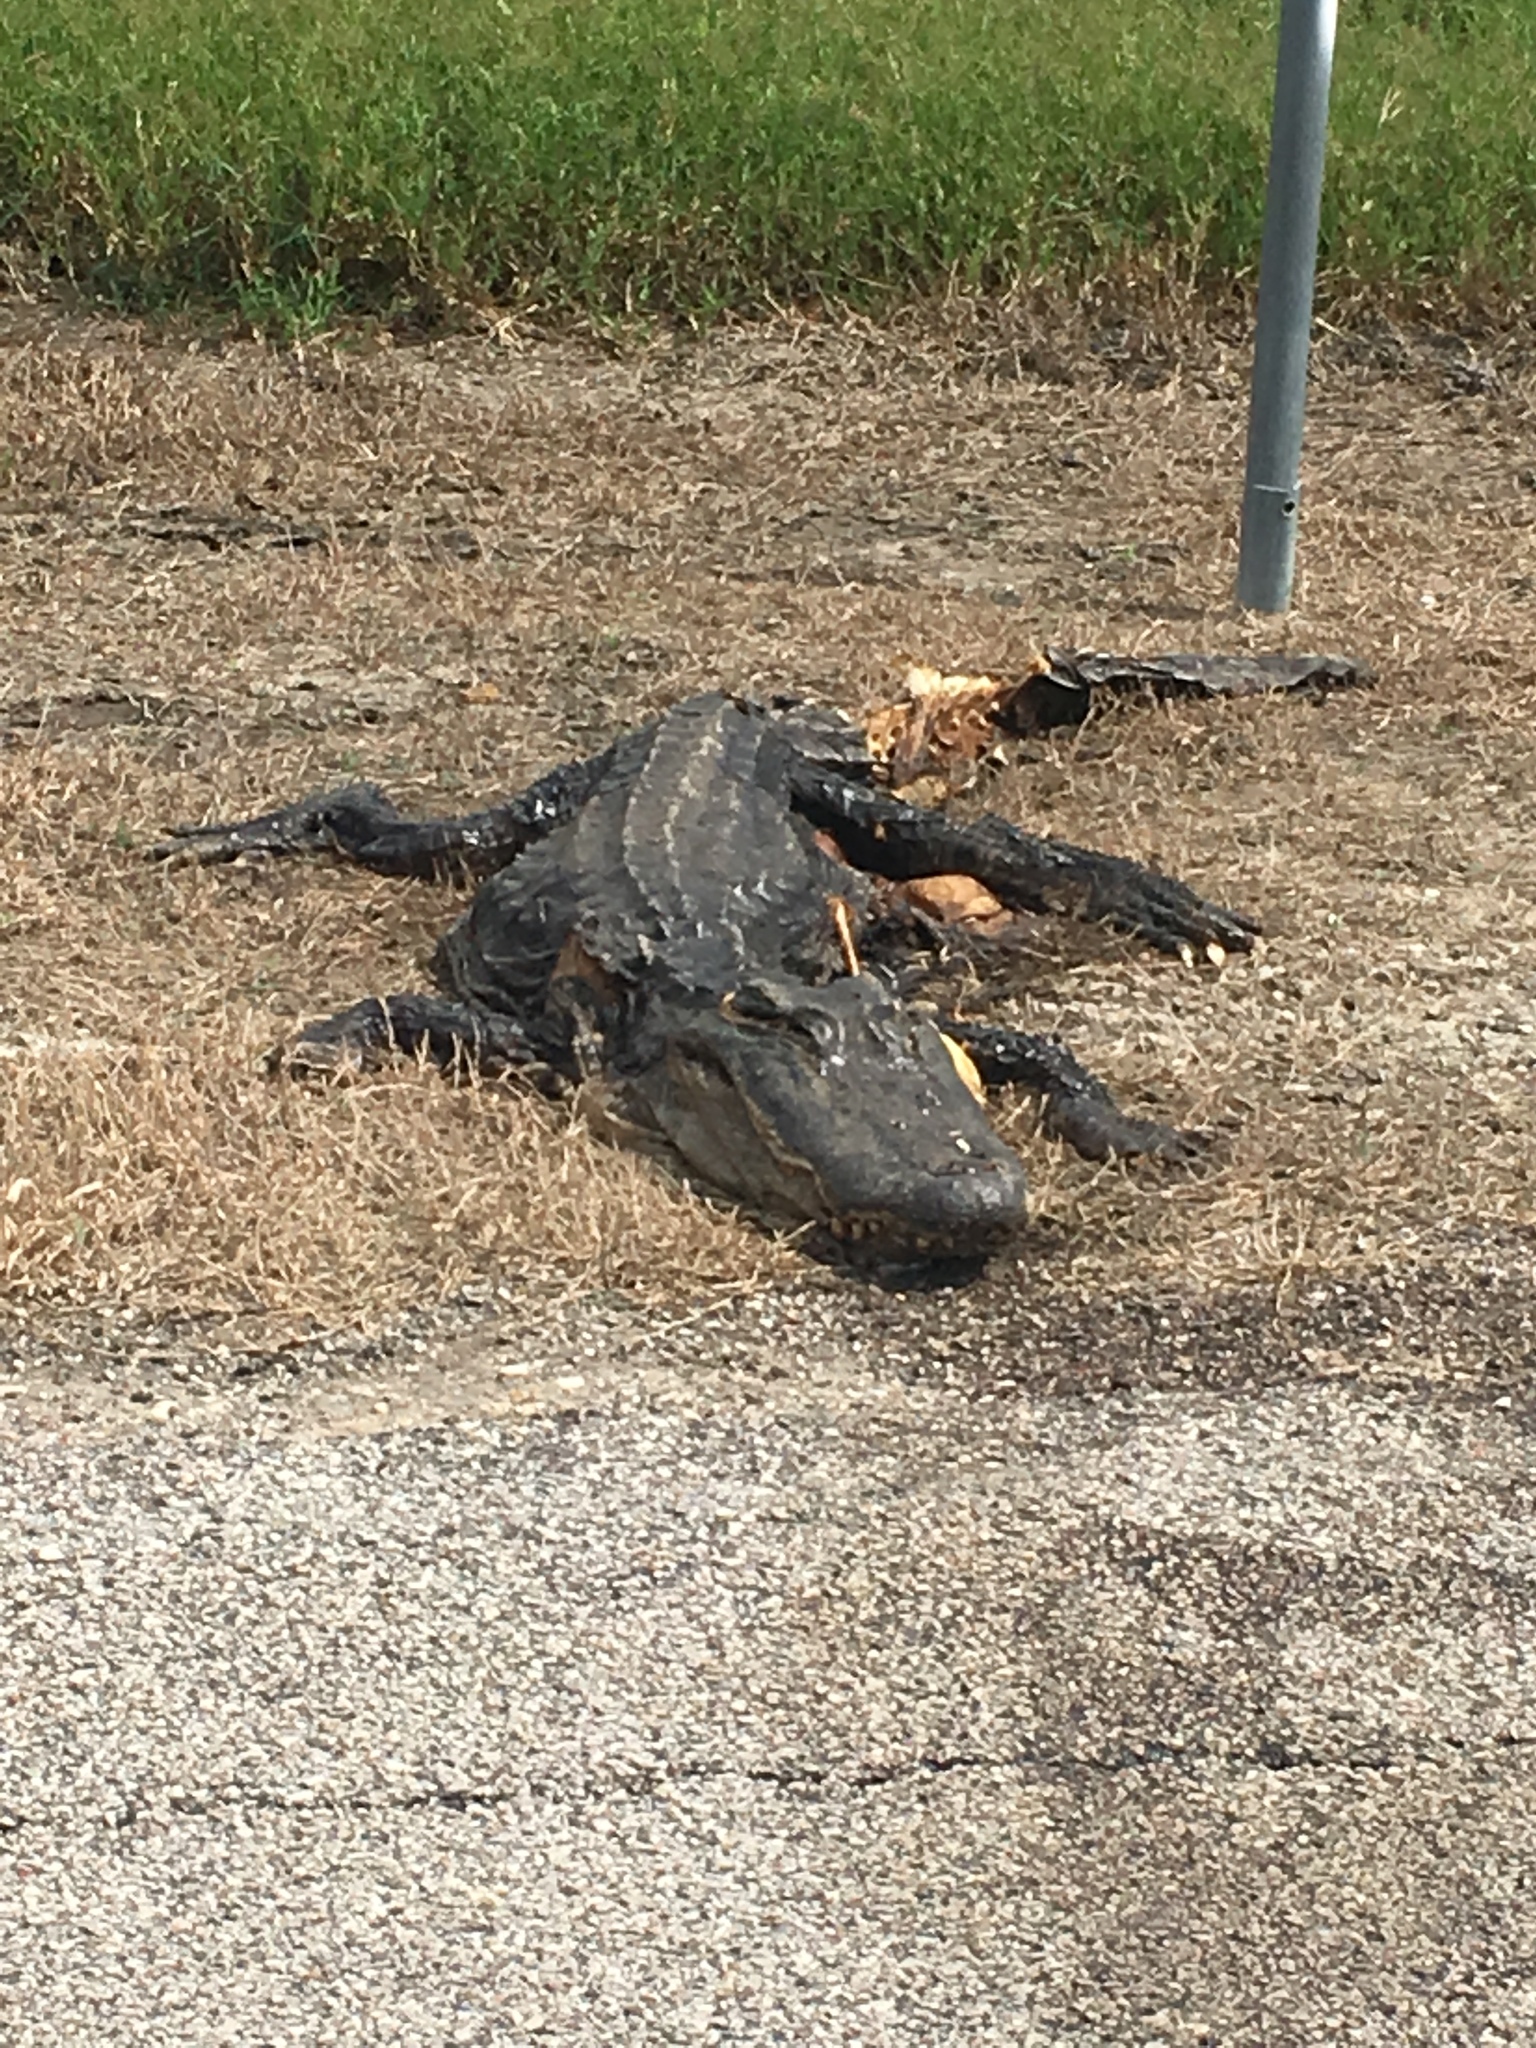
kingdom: Animalia
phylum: Chordata
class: Crocodylia
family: Alligatoridae
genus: Alligator
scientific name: Alligator mississippiensis
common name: American alligator
